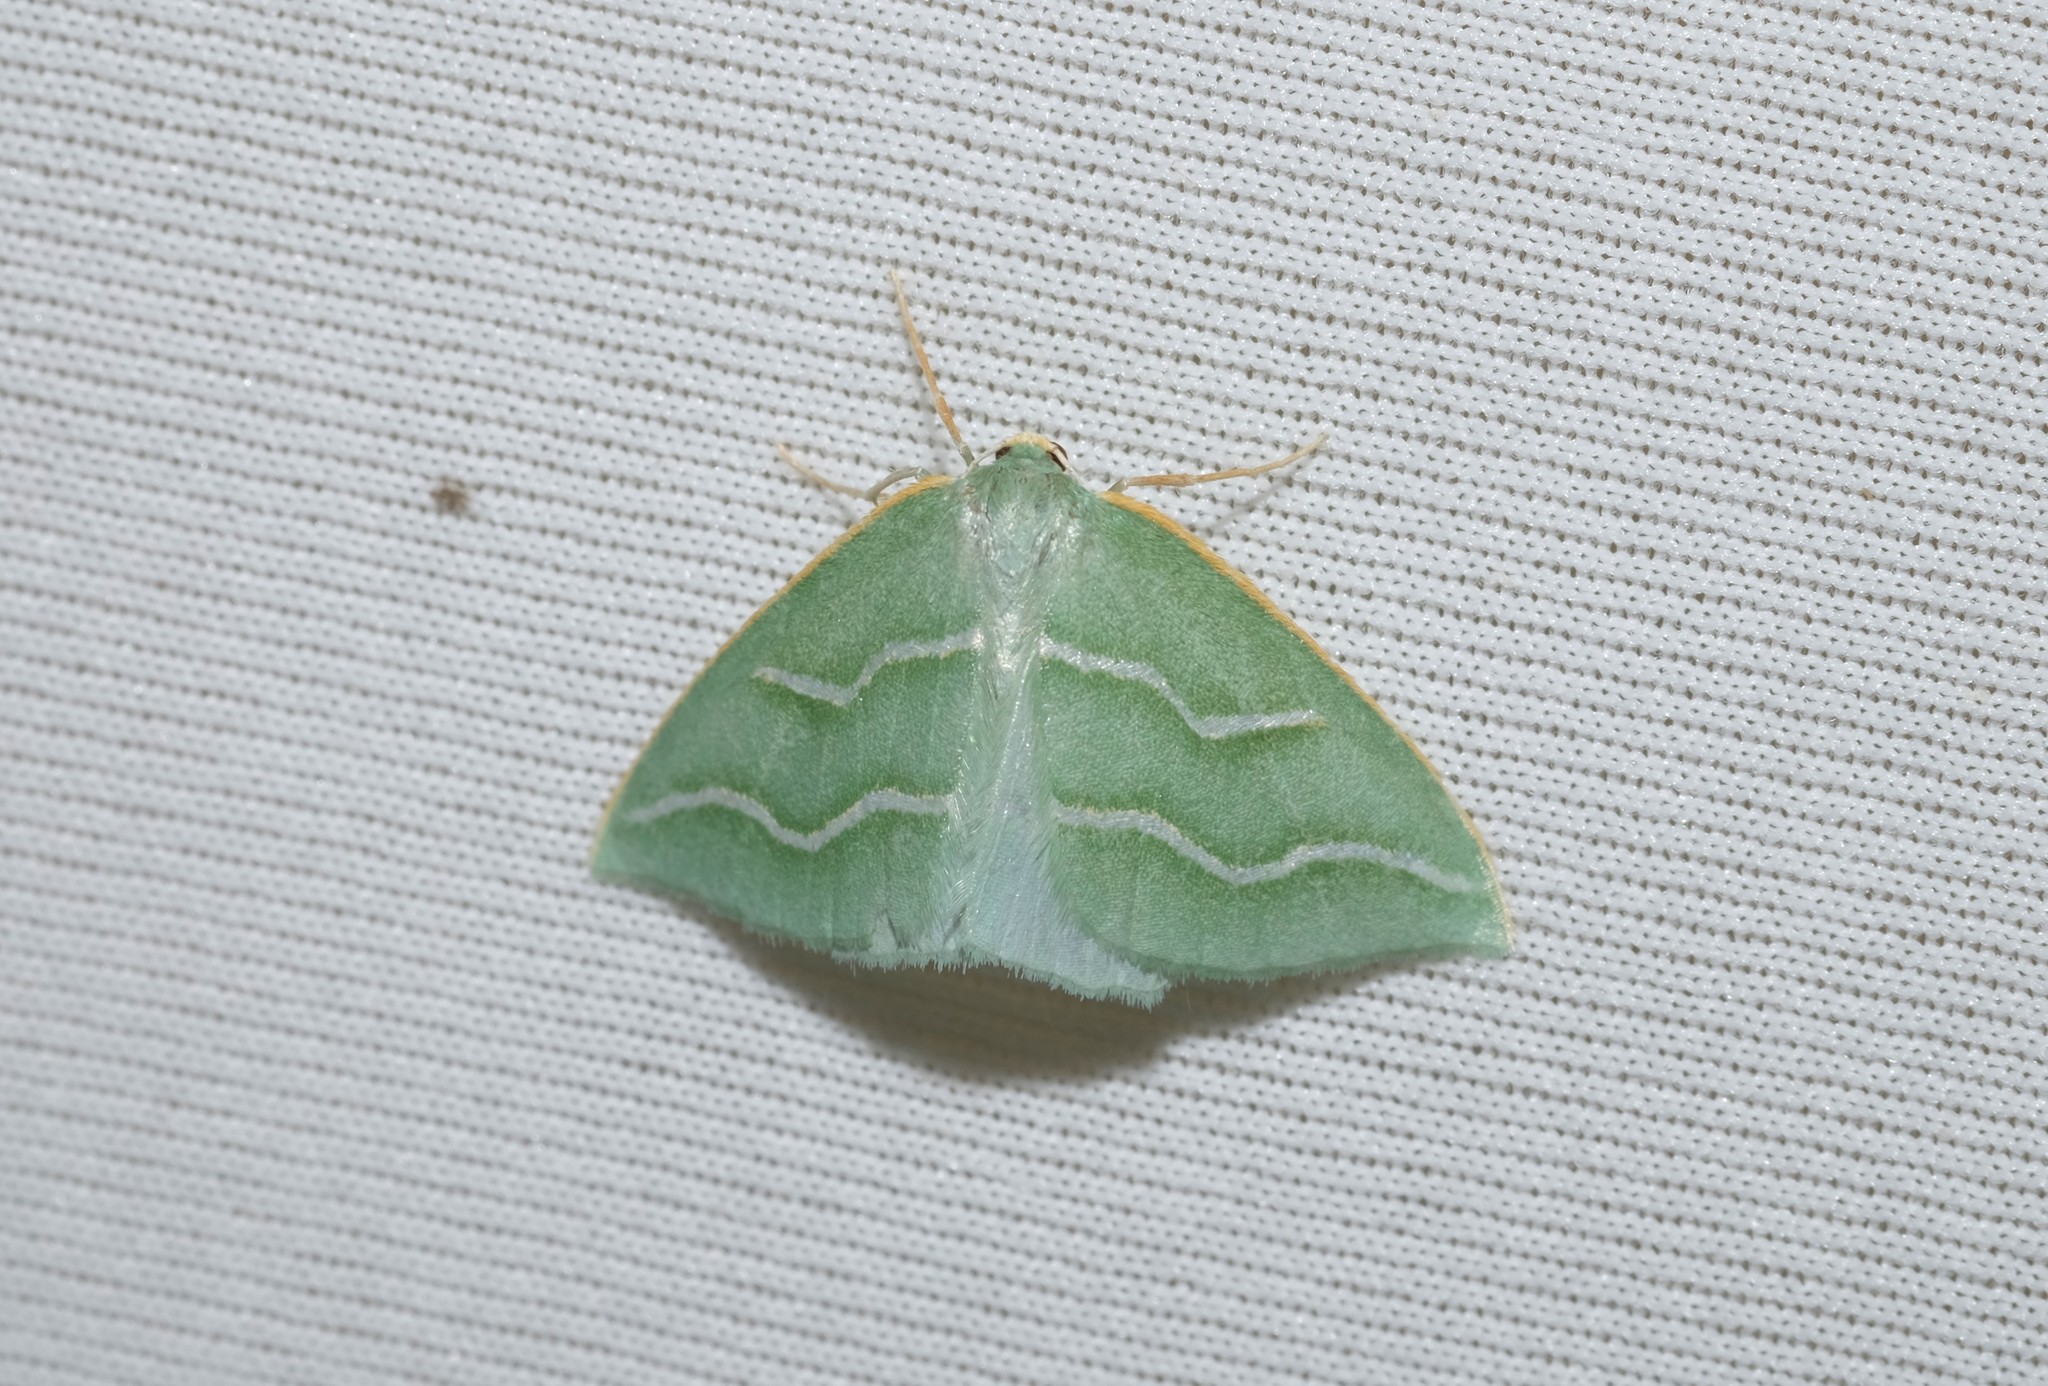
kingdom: Animalia
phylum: Arthropoda
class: Insecta
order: Lepidoptera
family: Geometridae
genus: Euloxia
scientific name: Euloxia meandraria
